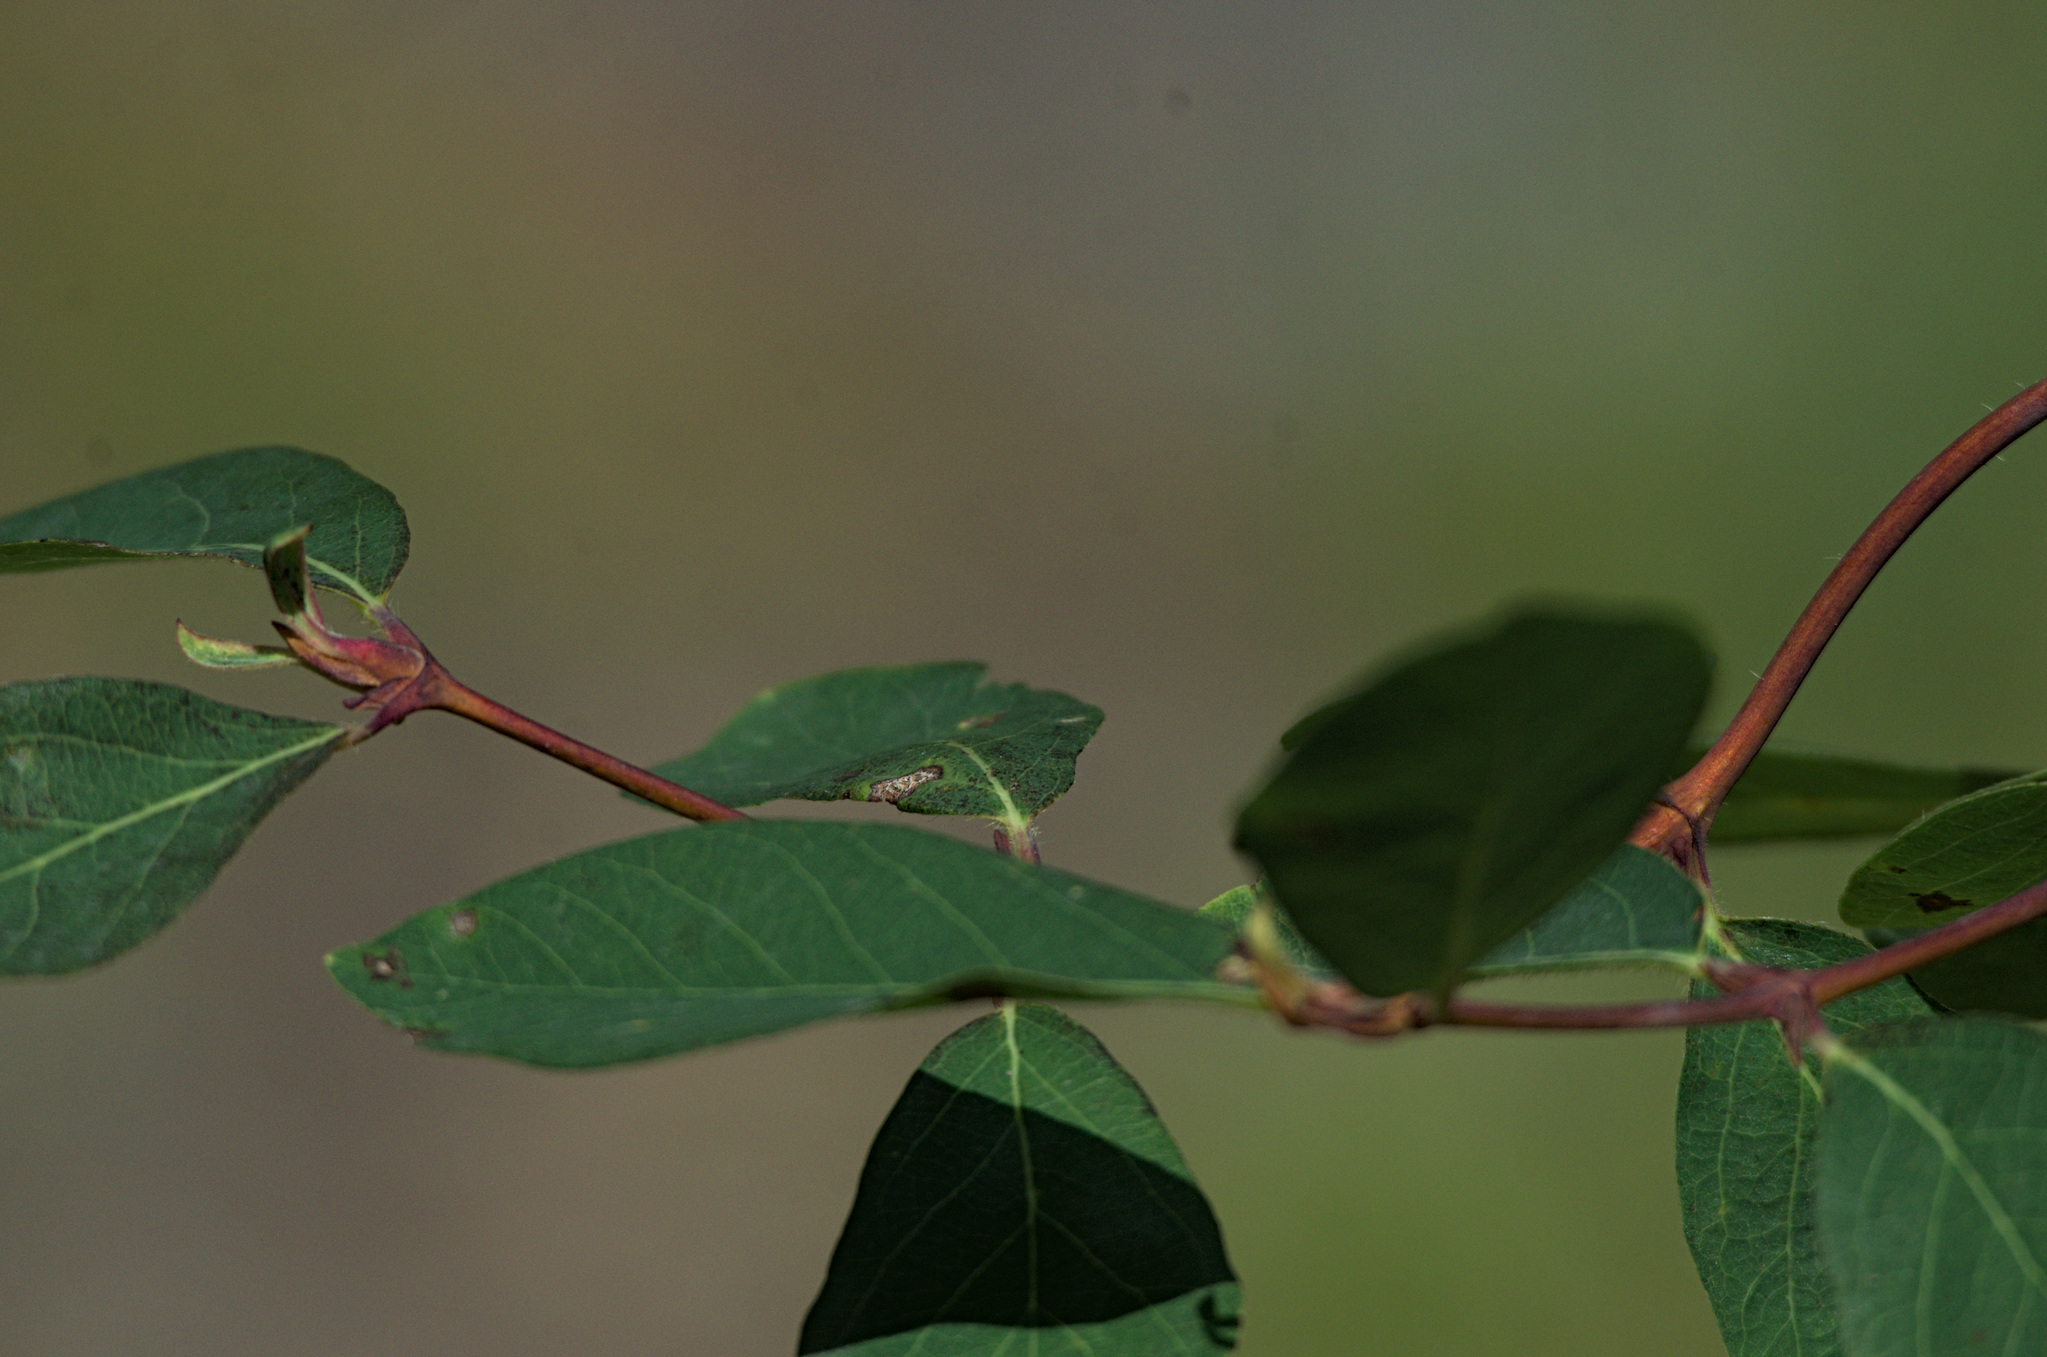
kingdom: Plantae
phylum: Tracheophyta
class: Magnoliopsida
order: Dipsacales
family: Caprifoliaceae
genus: Lonicera
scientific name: Lonicera caerulea
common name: Blue honeysuckle
